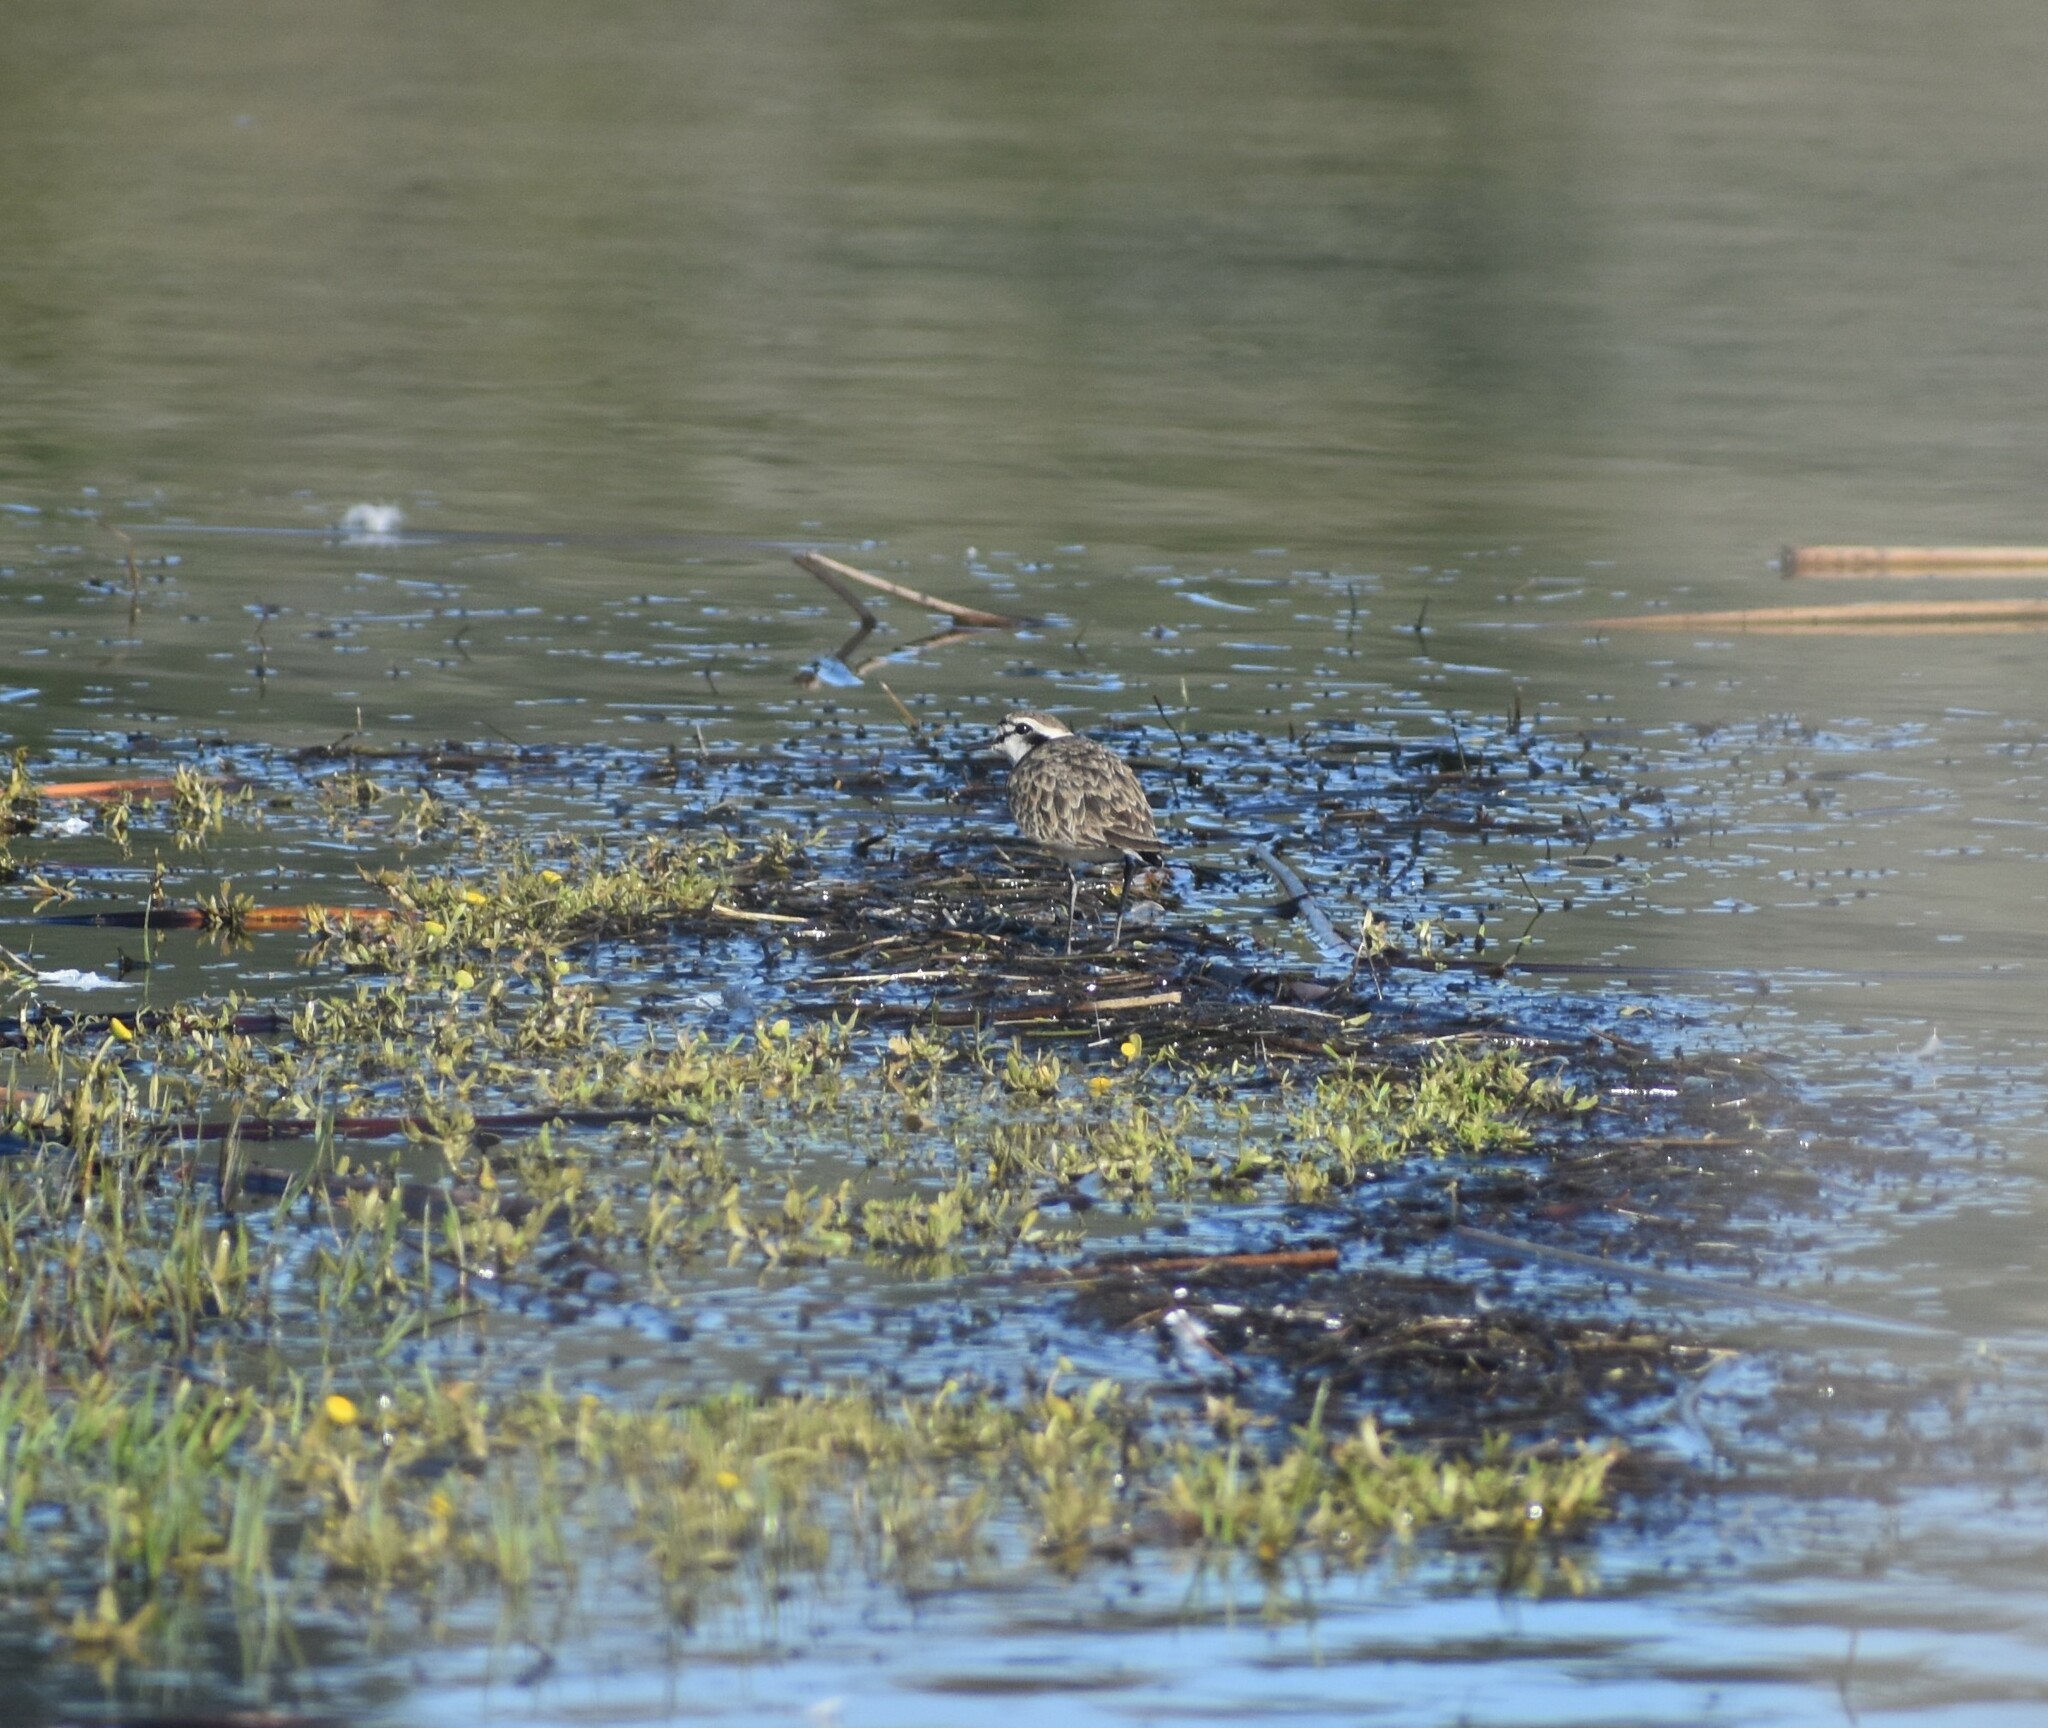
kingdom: Animalia
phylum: Chordata
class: Aves
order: Charadriiformes
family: Charadriidae
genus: Anarhynchus
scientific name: Anarhynchus
